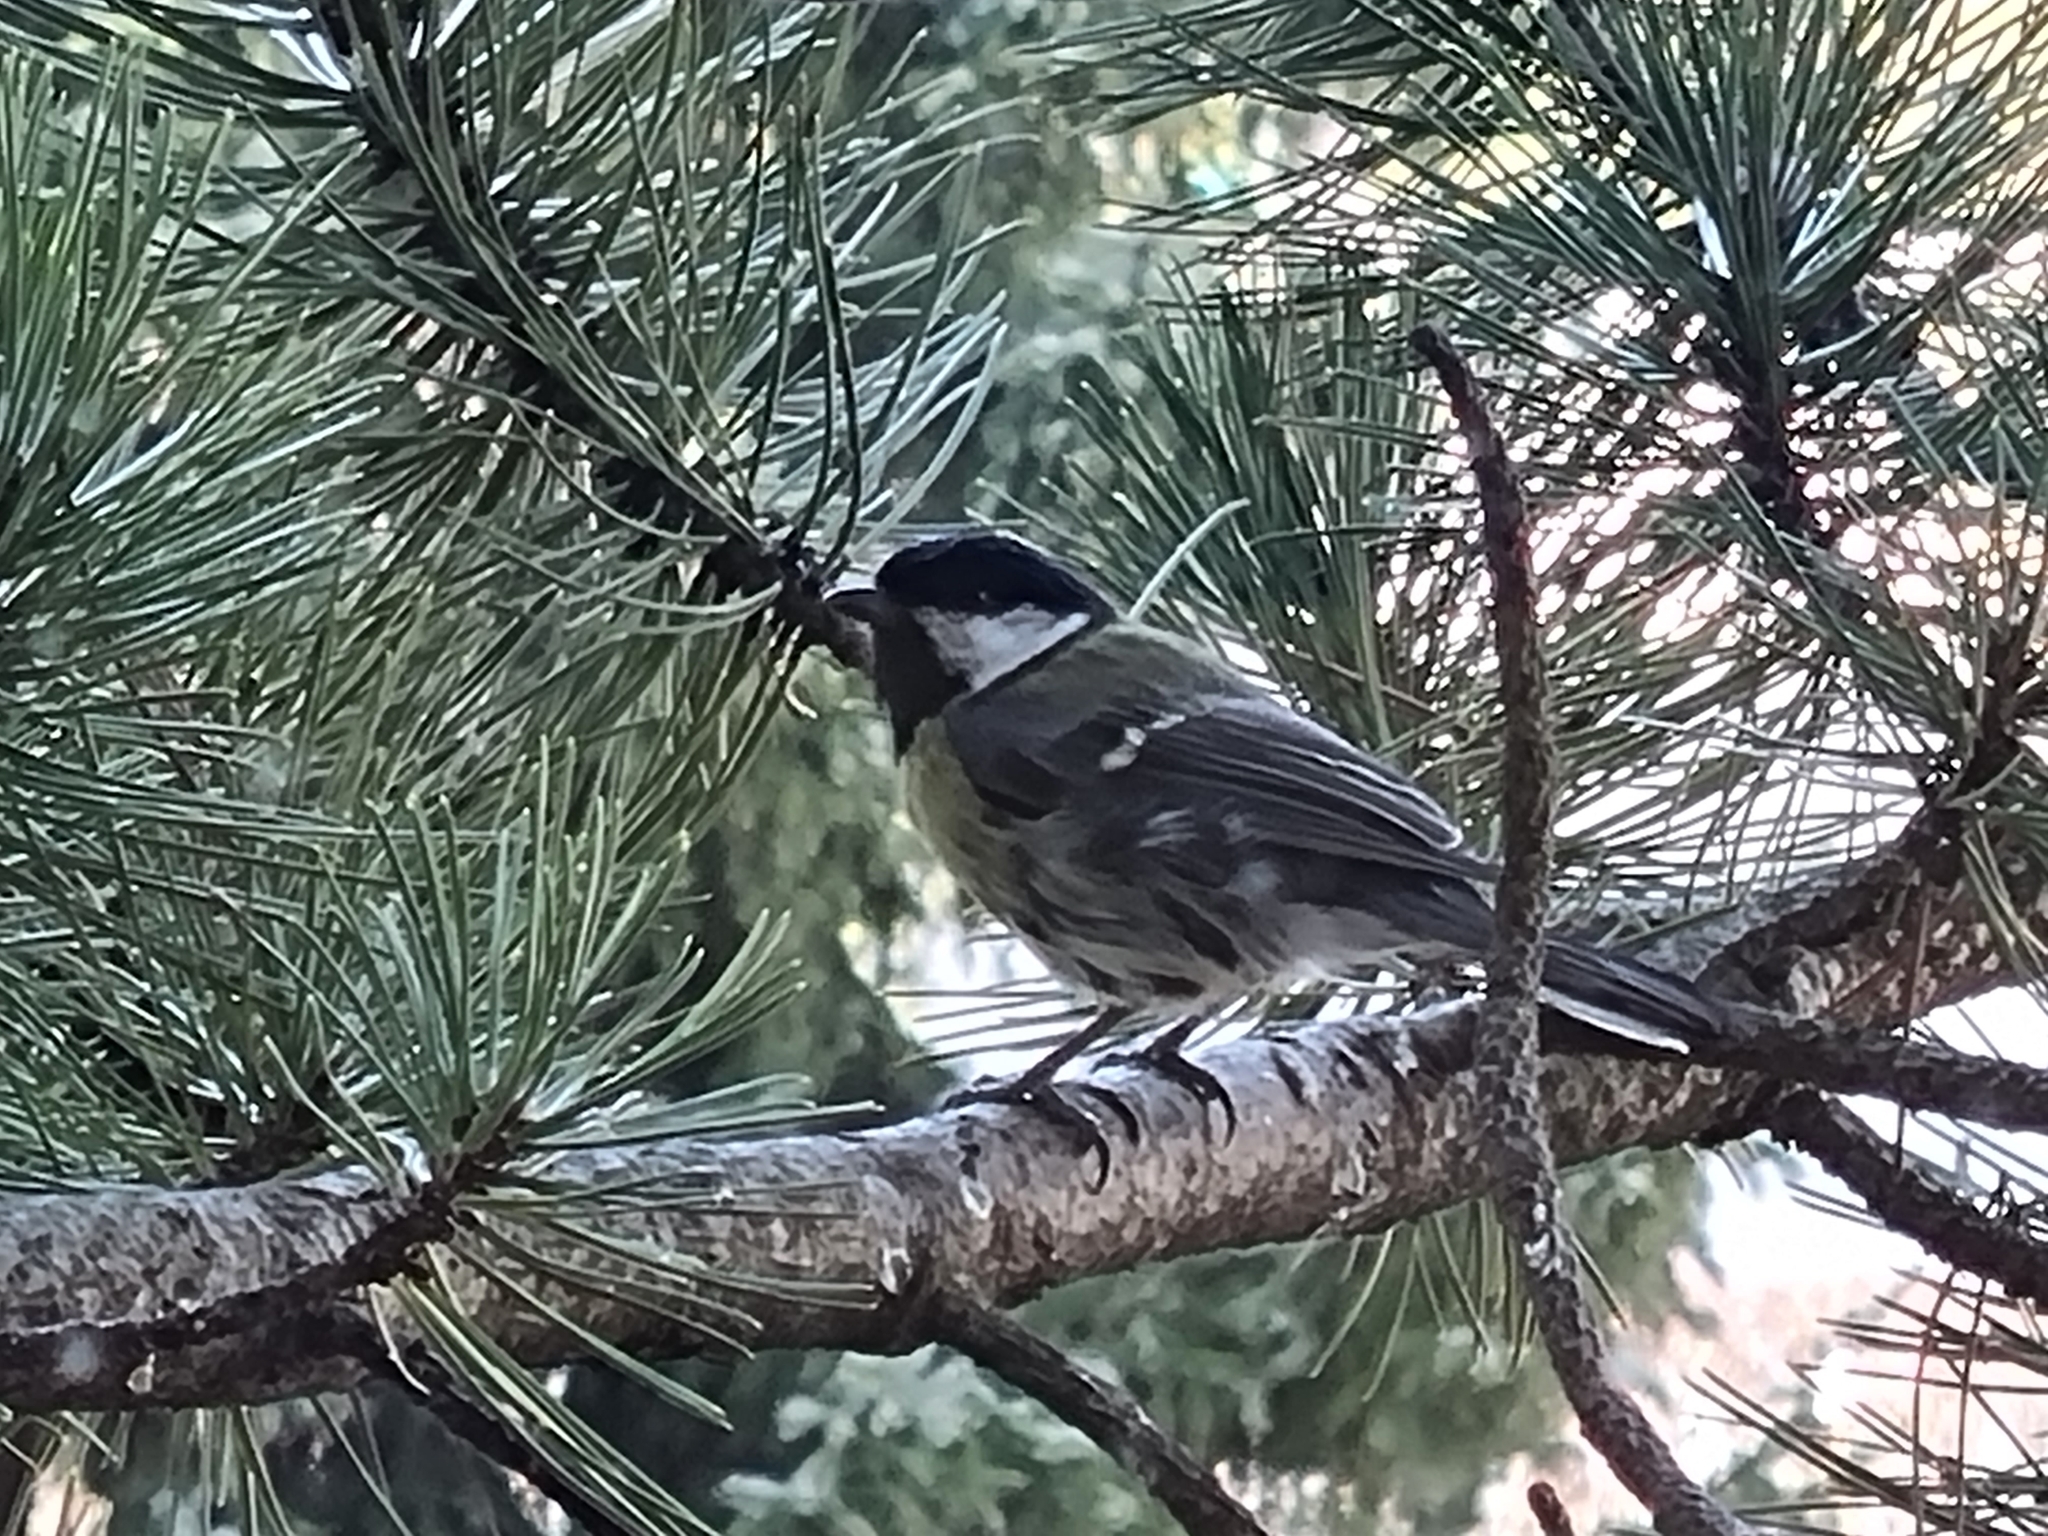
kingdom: Animalia
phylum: Chordata
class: Aves
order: Passeriformes
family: Paridae
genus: Parus
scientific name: Parus major
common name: Great tit
